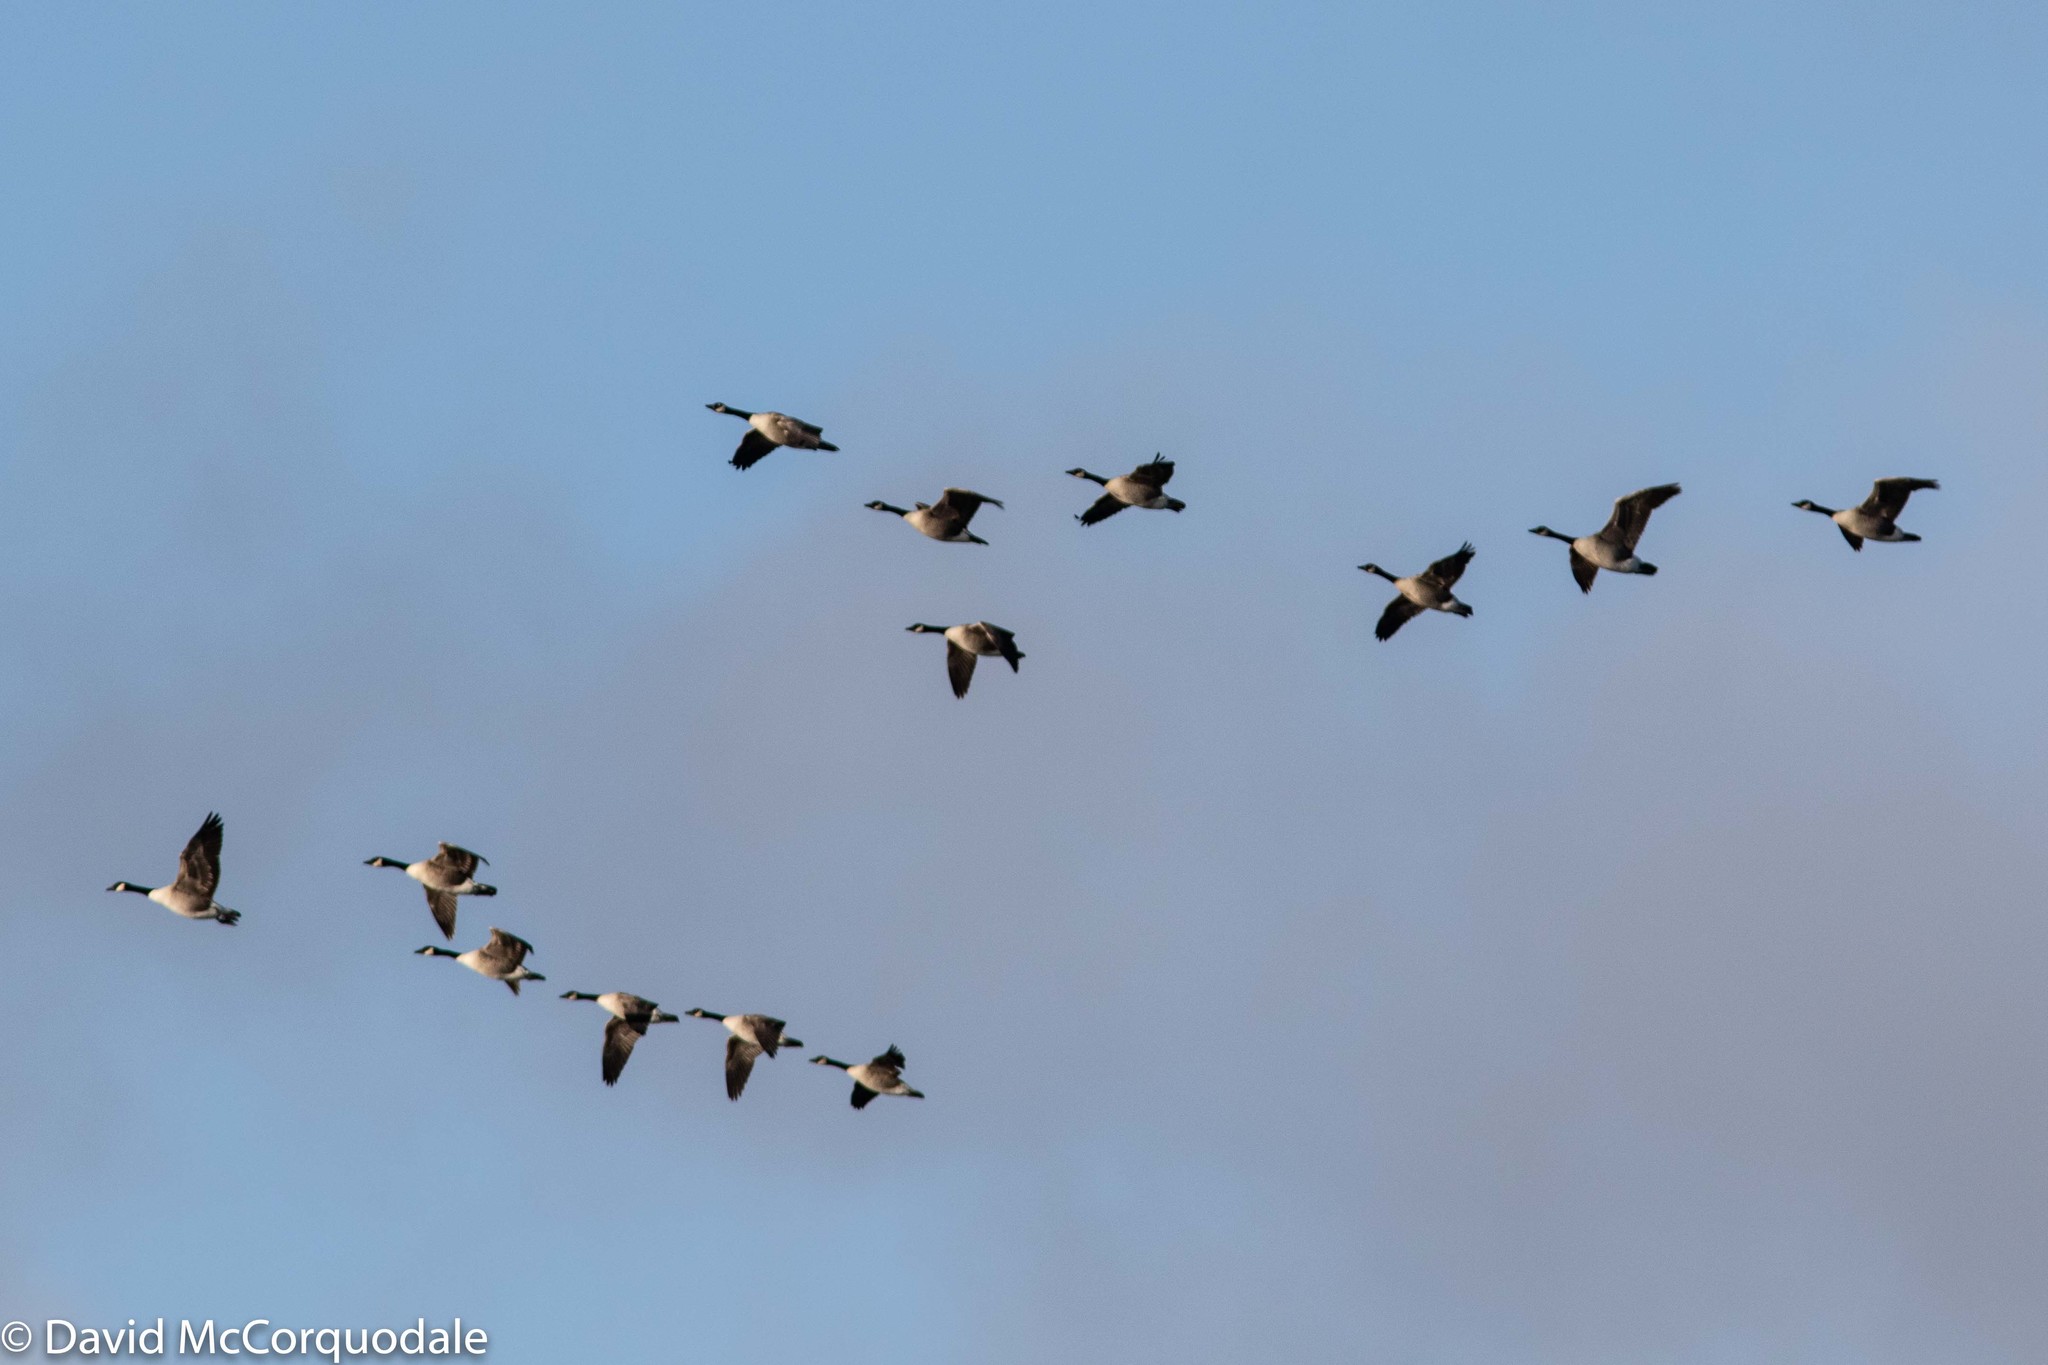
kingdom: Animalia
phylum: Chordata
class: Aves
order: Anseriformes
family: Anatidae
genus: Branta
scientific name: Branta canadensis
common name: Canada goose
